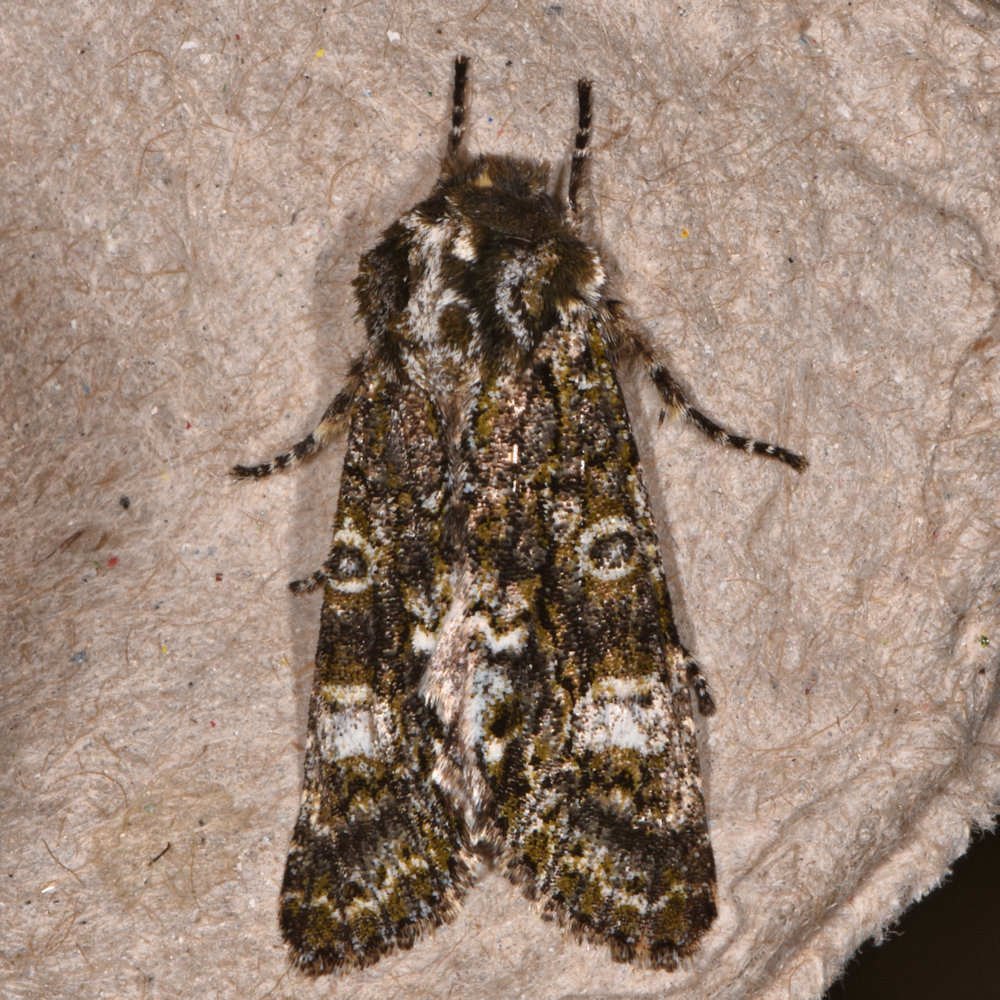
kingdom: Animalia
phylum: Arthropoda
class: Insecta
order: Lepidoptera
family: Noctuidae
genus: Psaphida
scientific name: Psaphida grotei
